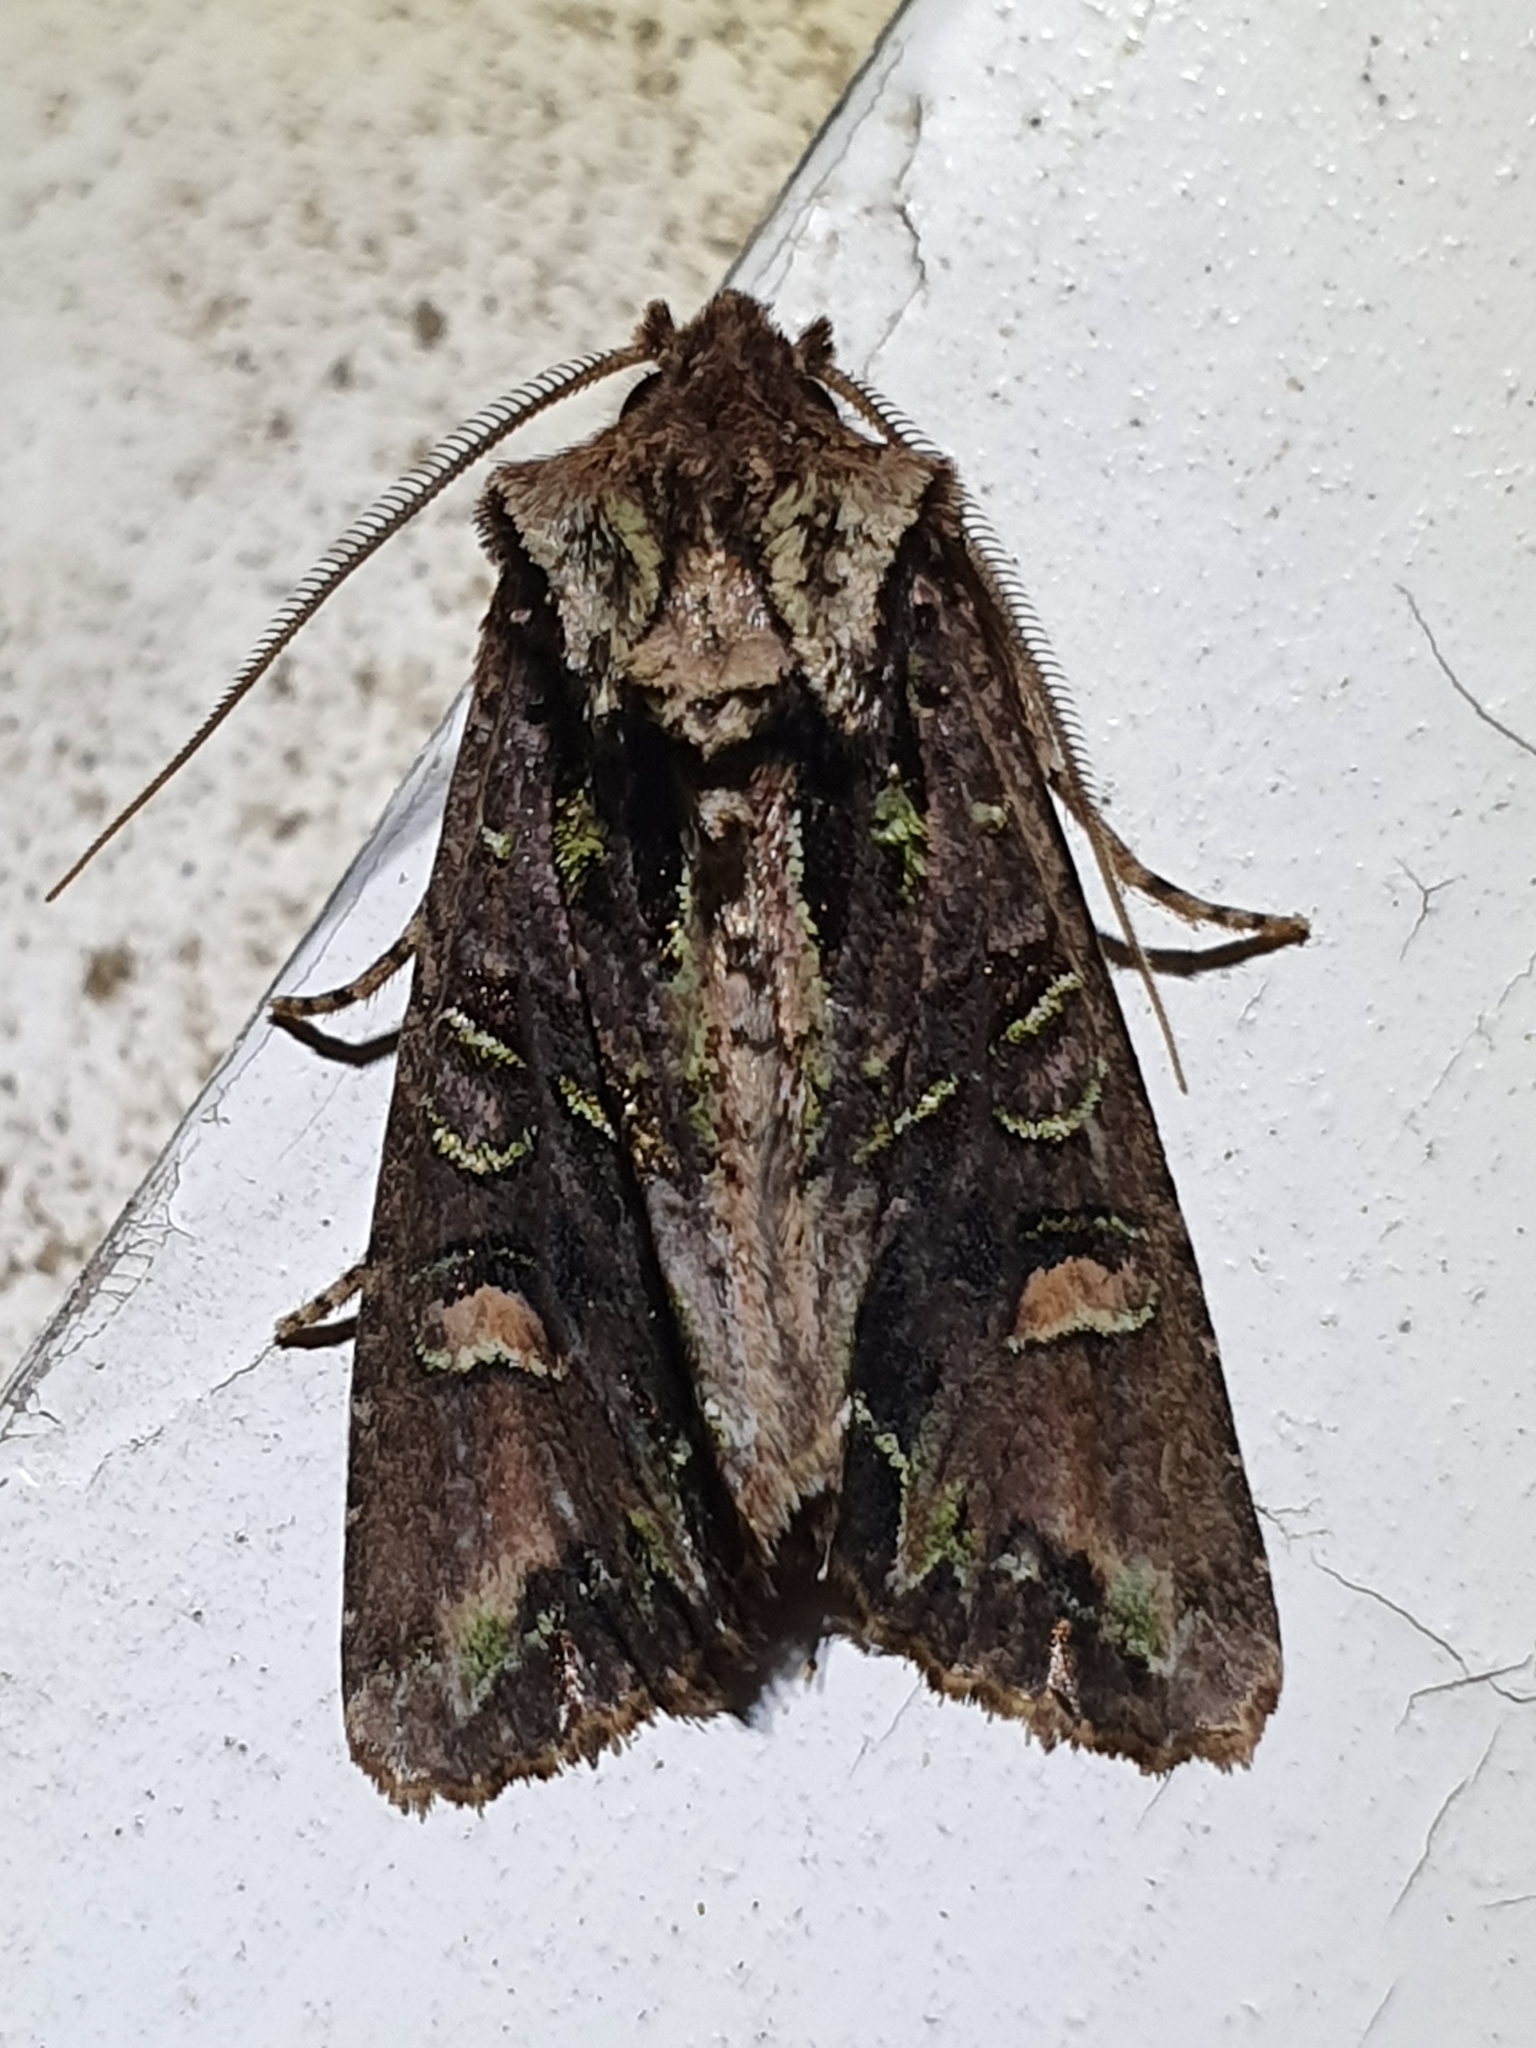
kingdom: Animalia
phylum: Arthropoda
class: Insecta
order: Lepidoptera
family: Noctuidae
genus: Ichneutica
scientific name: Ichneutica insignis
